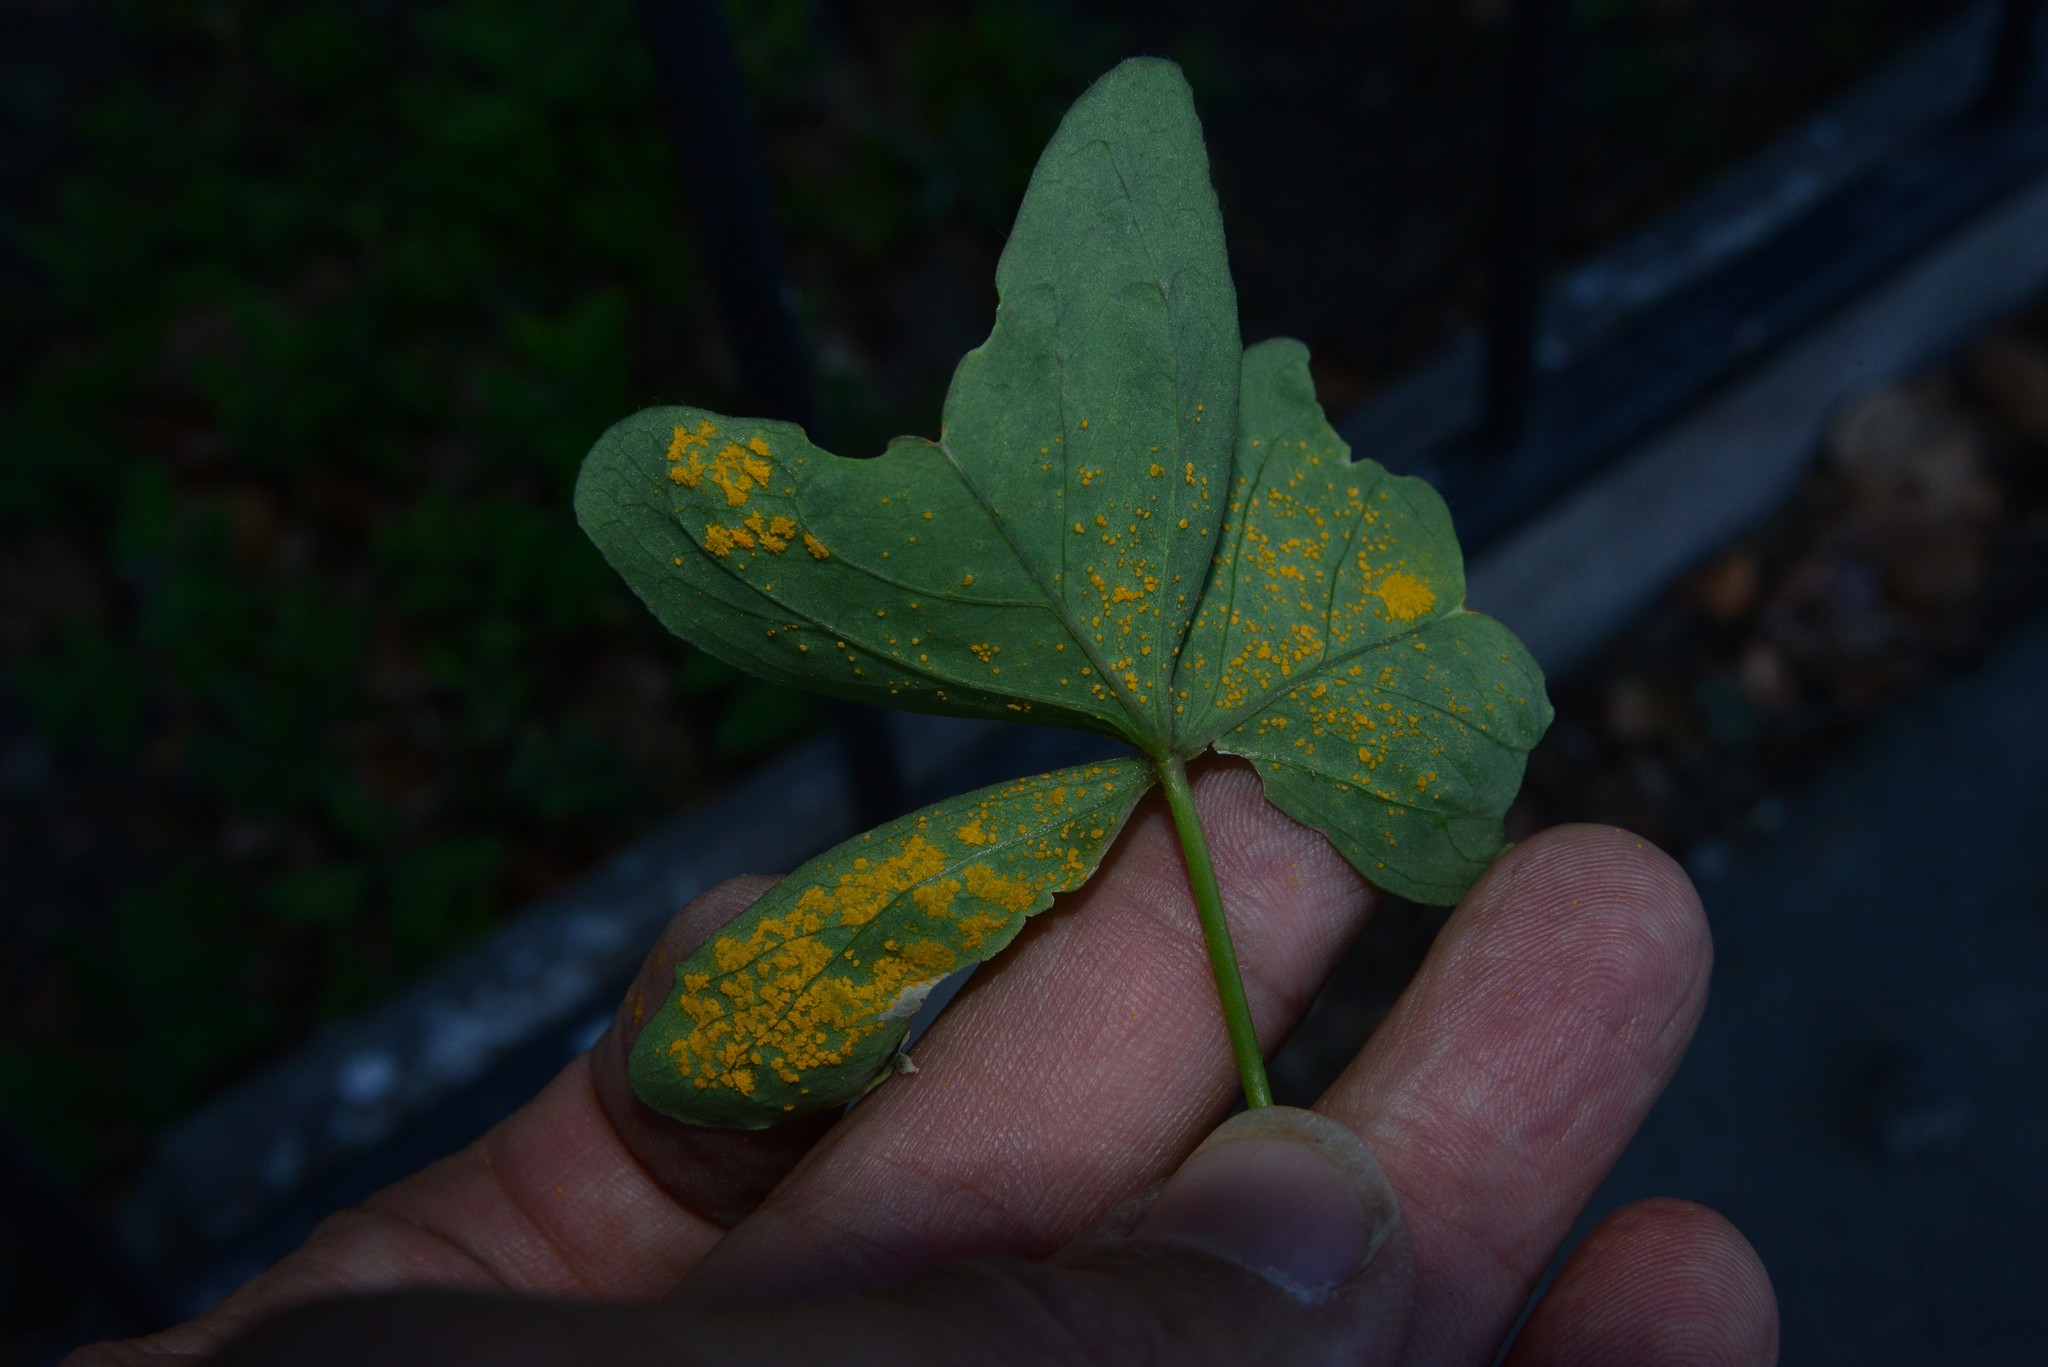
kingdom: Fungi
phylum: Basidiomycota
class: Pucciniomycetes
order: Pucciniales
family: Pucciniaceae
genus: Puccinia
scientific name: Puccinia oxalidis
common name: Oxalis rust
